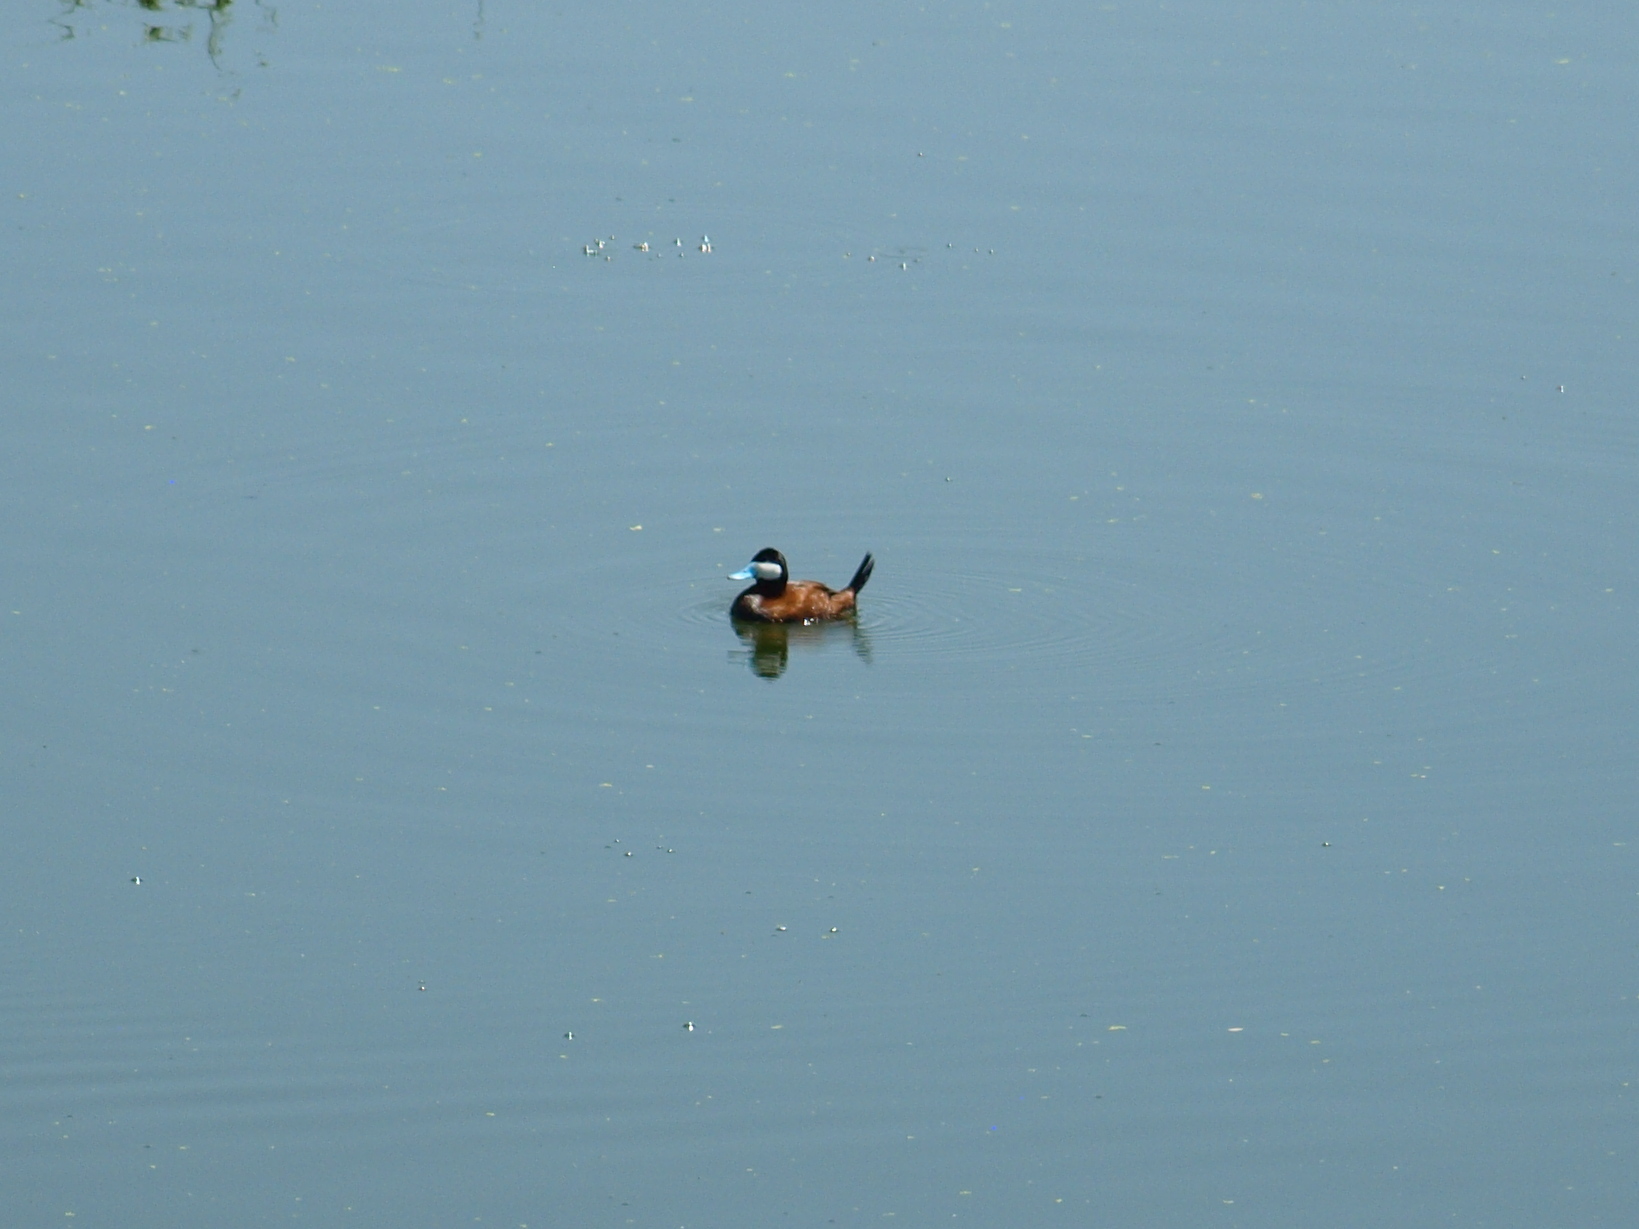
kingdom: Animalia
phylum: Chordata
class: Aves
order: Anseriformes
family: Anatidae
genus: Oxyura
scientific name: Oxyura jamaicensis
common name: Ruddy duck
